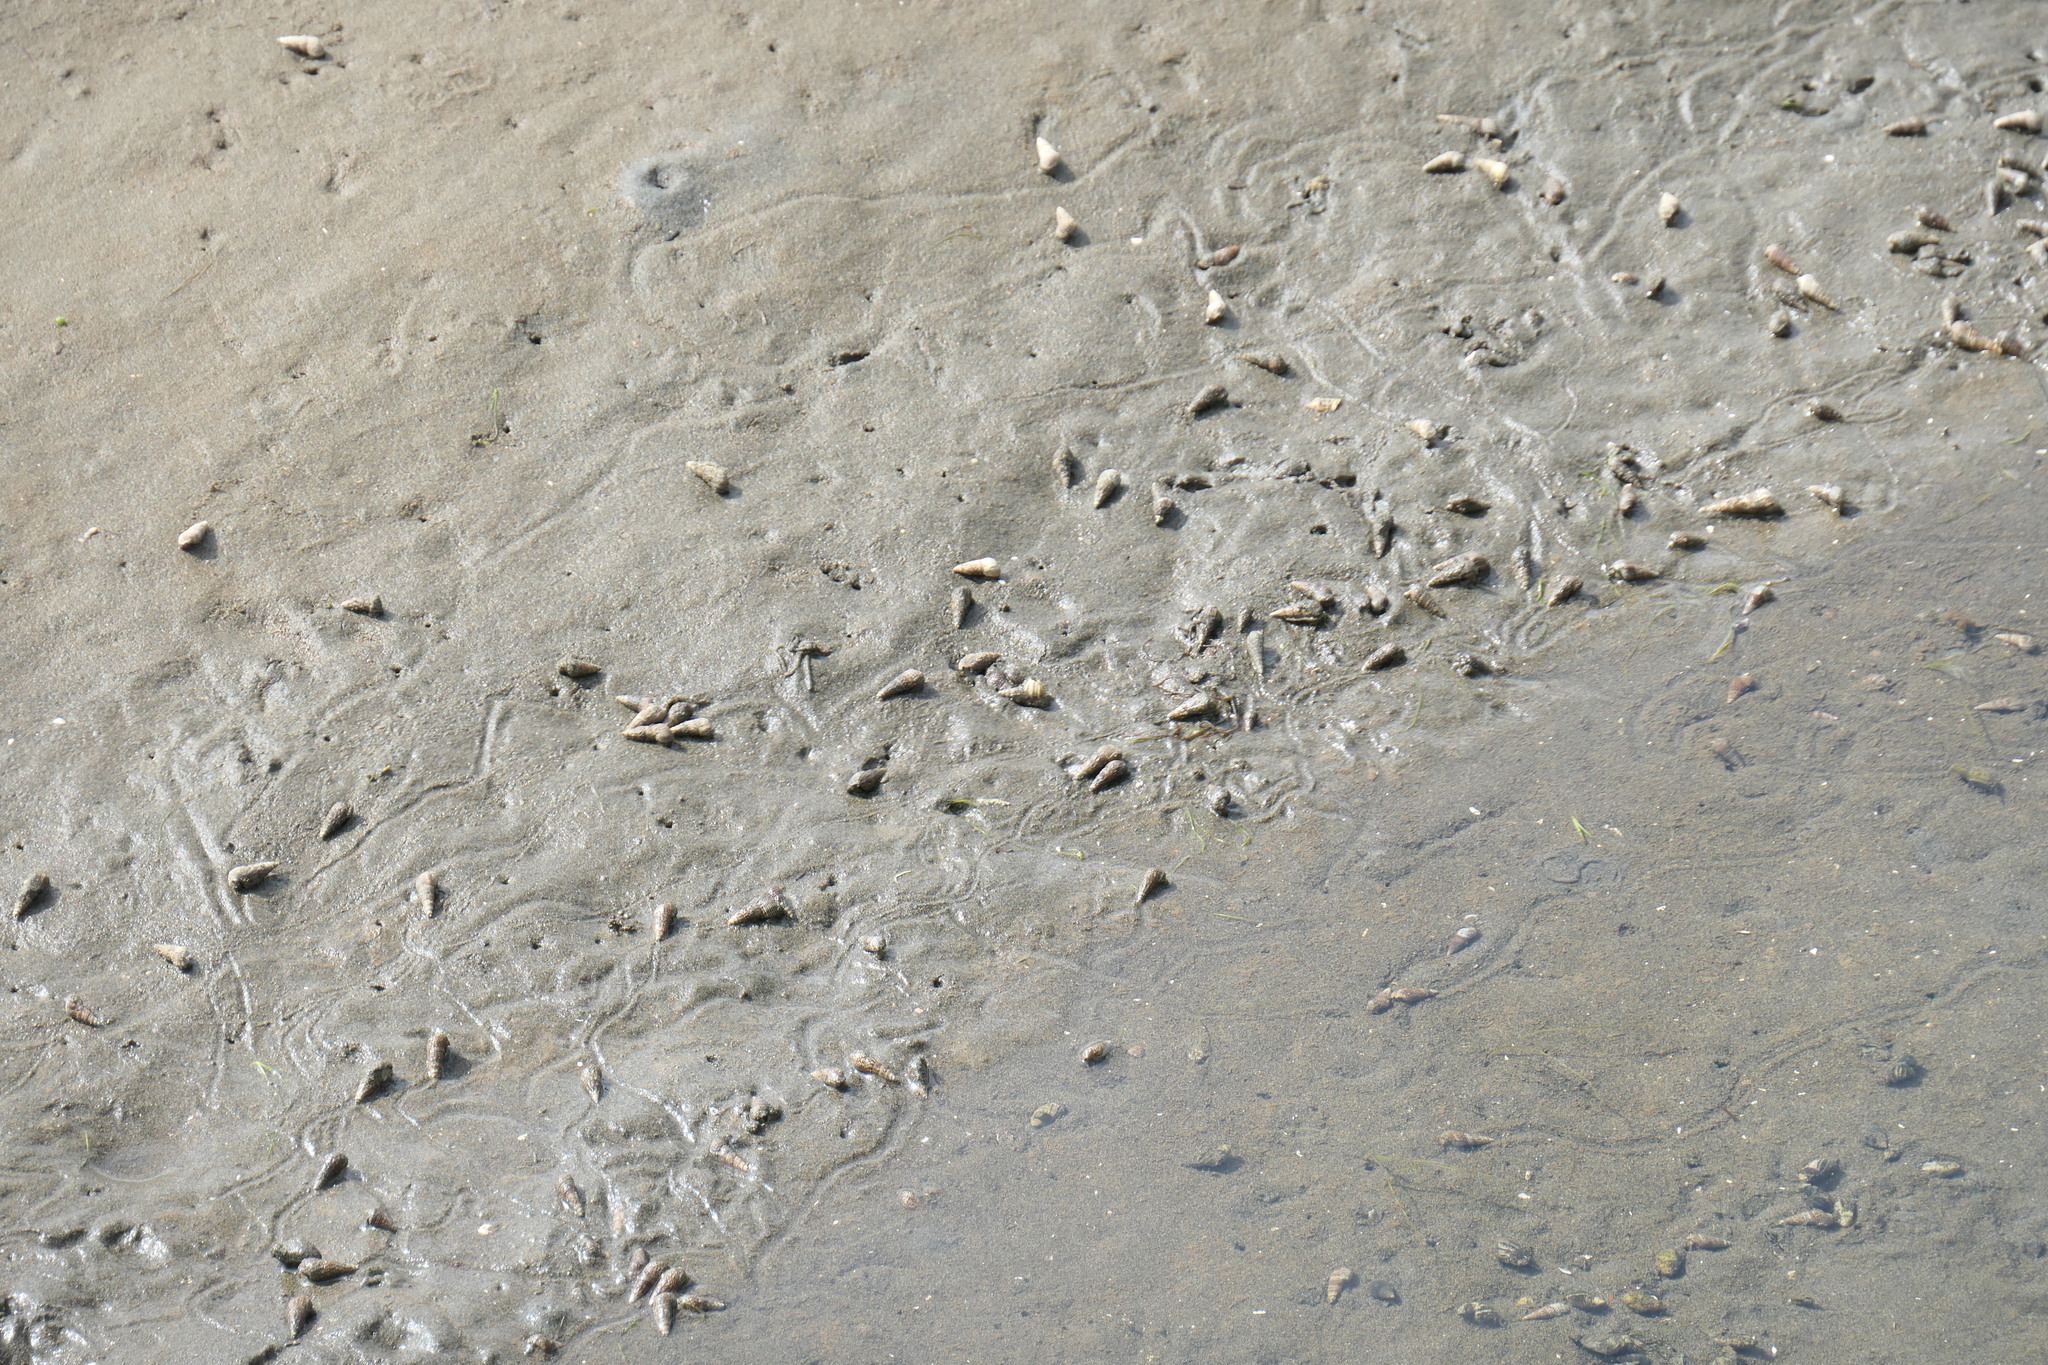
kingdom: Animalia
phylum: Mollusca
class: Gastropoda
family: Batillariidae
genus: Batillaria
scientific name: Batillaria attramentaria
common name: Japanese false cerith
